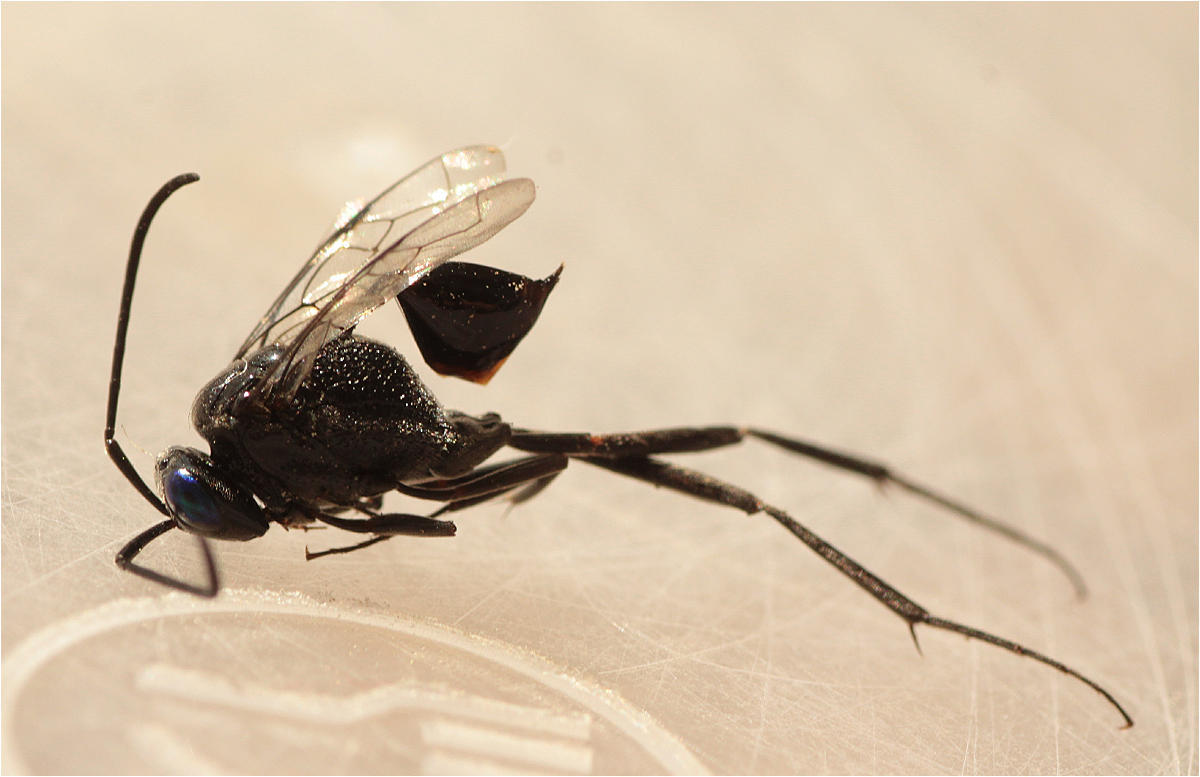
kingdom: Animalia
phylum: Arthropoda
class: Insecta
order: Hymenoptera
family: Evaniidae
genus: Evania
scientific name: Evania appendigaster
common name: Ensign wasp
